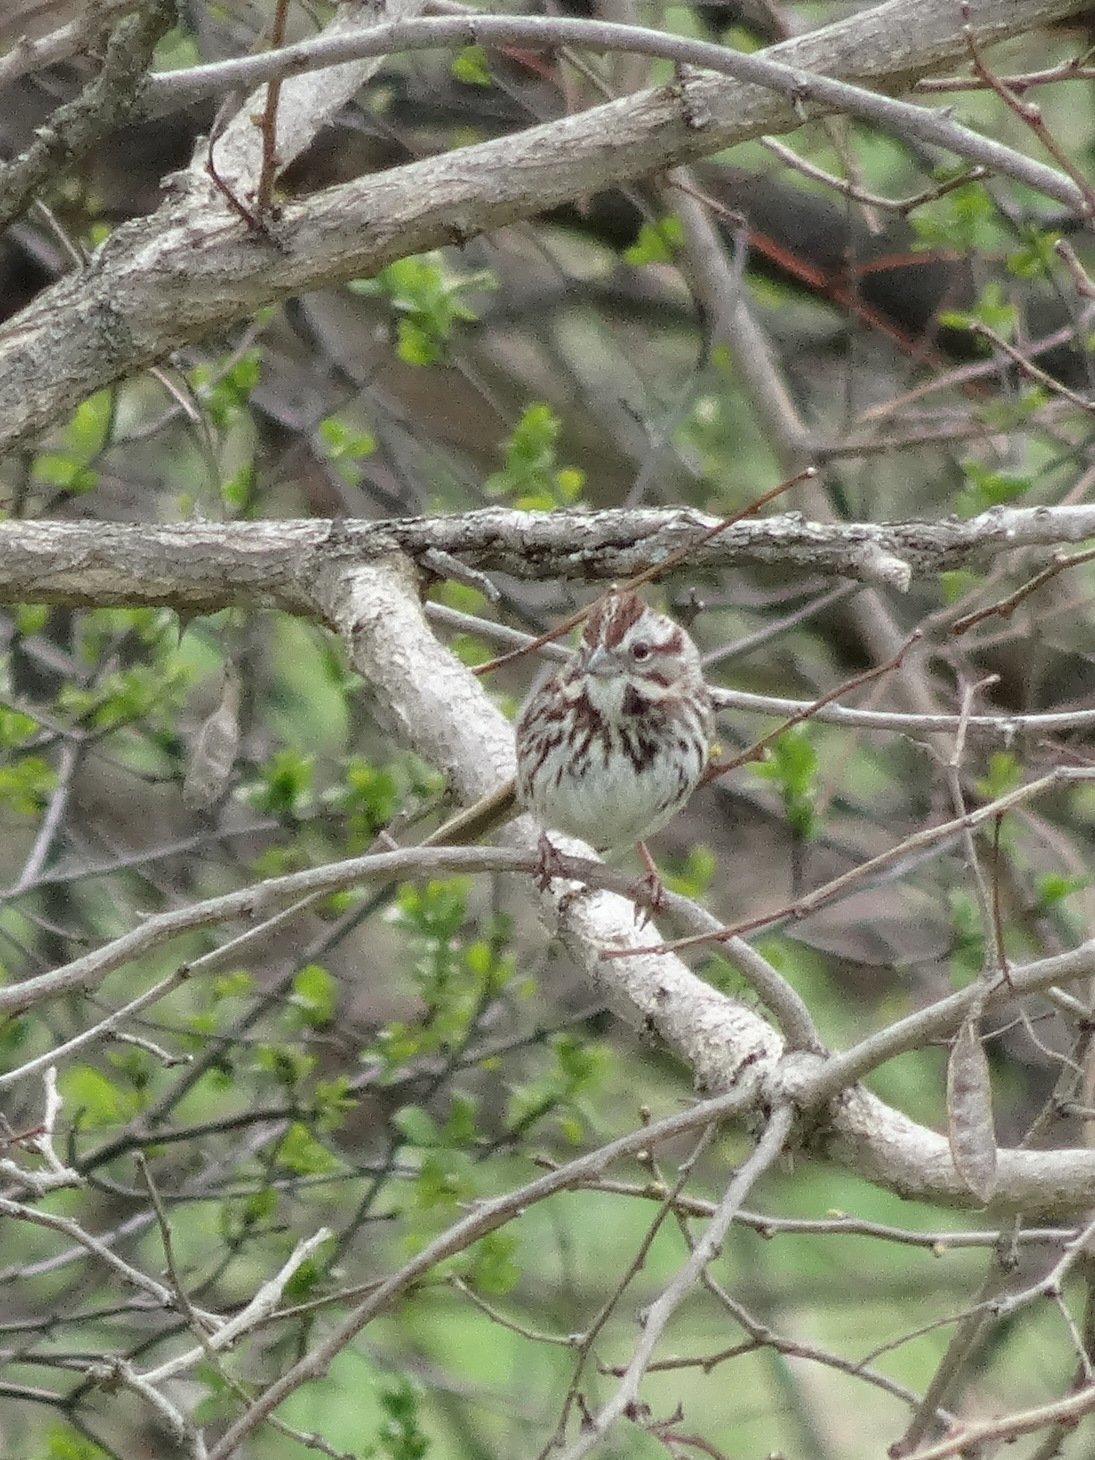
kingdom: Animalia
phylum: Chordata
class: Aves
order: Passeriformes
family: Passerellidae
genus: Melospiza
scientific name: Melospiza melodia
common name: Song sparrow
